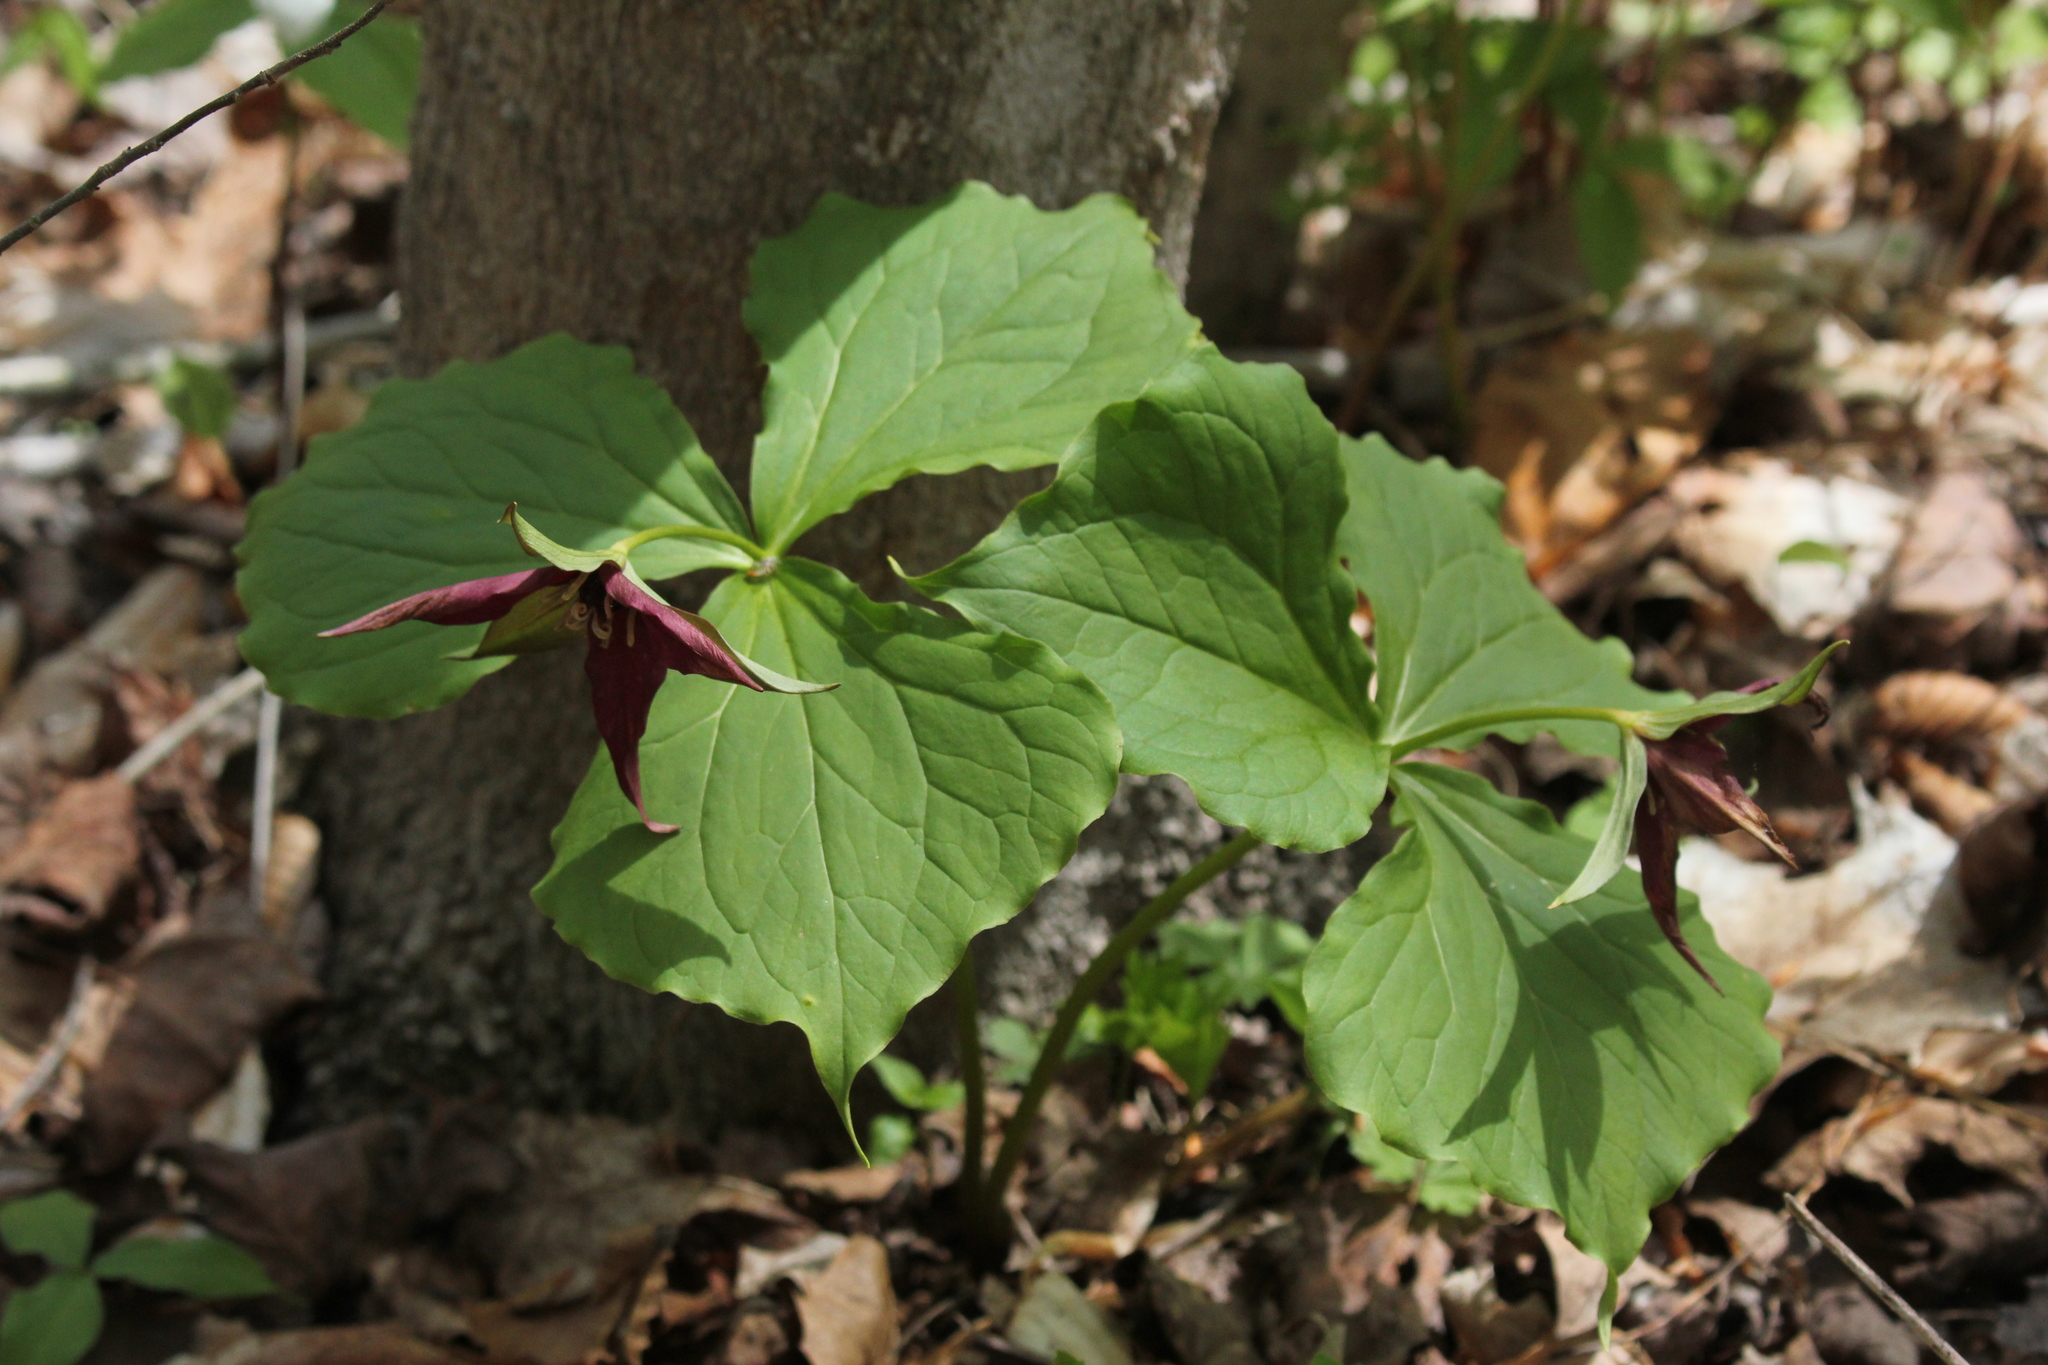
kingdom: Plantae
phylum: Tracheophyta
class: Liliopsida
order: Liliales
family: Melanthiaceae
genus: Trillium
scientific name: Trillium erectum
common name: Purple trillium
